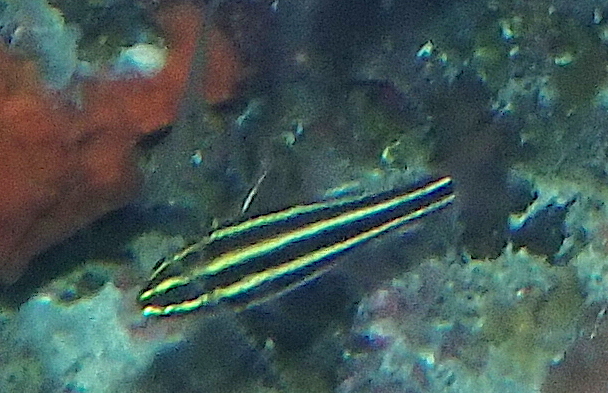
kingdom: Animalia
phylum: Chordata
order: Perciformes
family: Apogonidae
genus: Ostorhinchus
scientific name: Ostorhinchus nigrofasciatus
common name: Blackstripe cardinalfish
